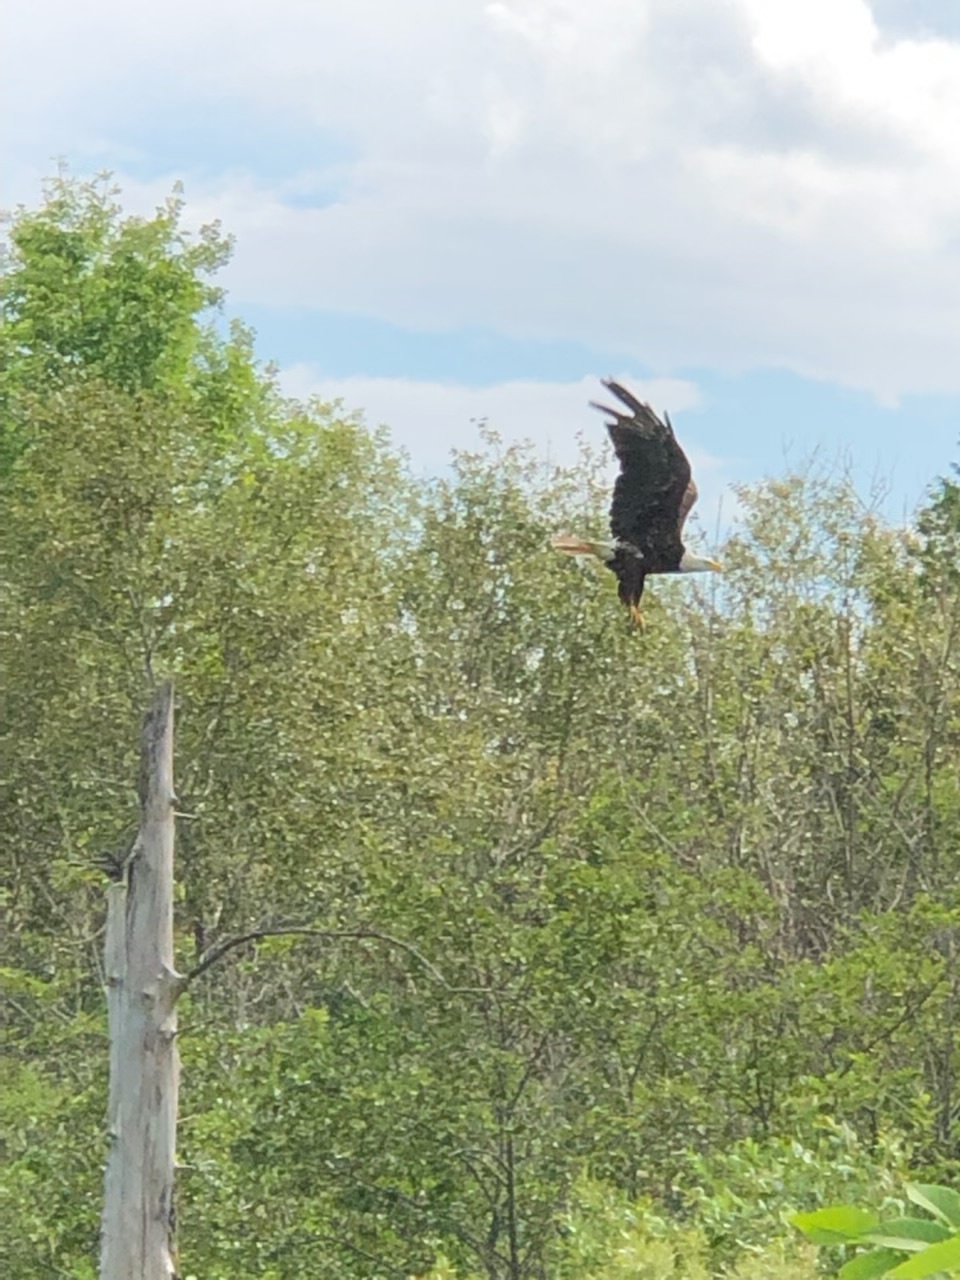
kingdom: Animalia
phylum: Chordata
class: Aves
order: Accipitriformes
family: Accipitridae
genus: Haliaeetus
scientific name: Haliaeetus leucocephalus
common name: Bald eagle
